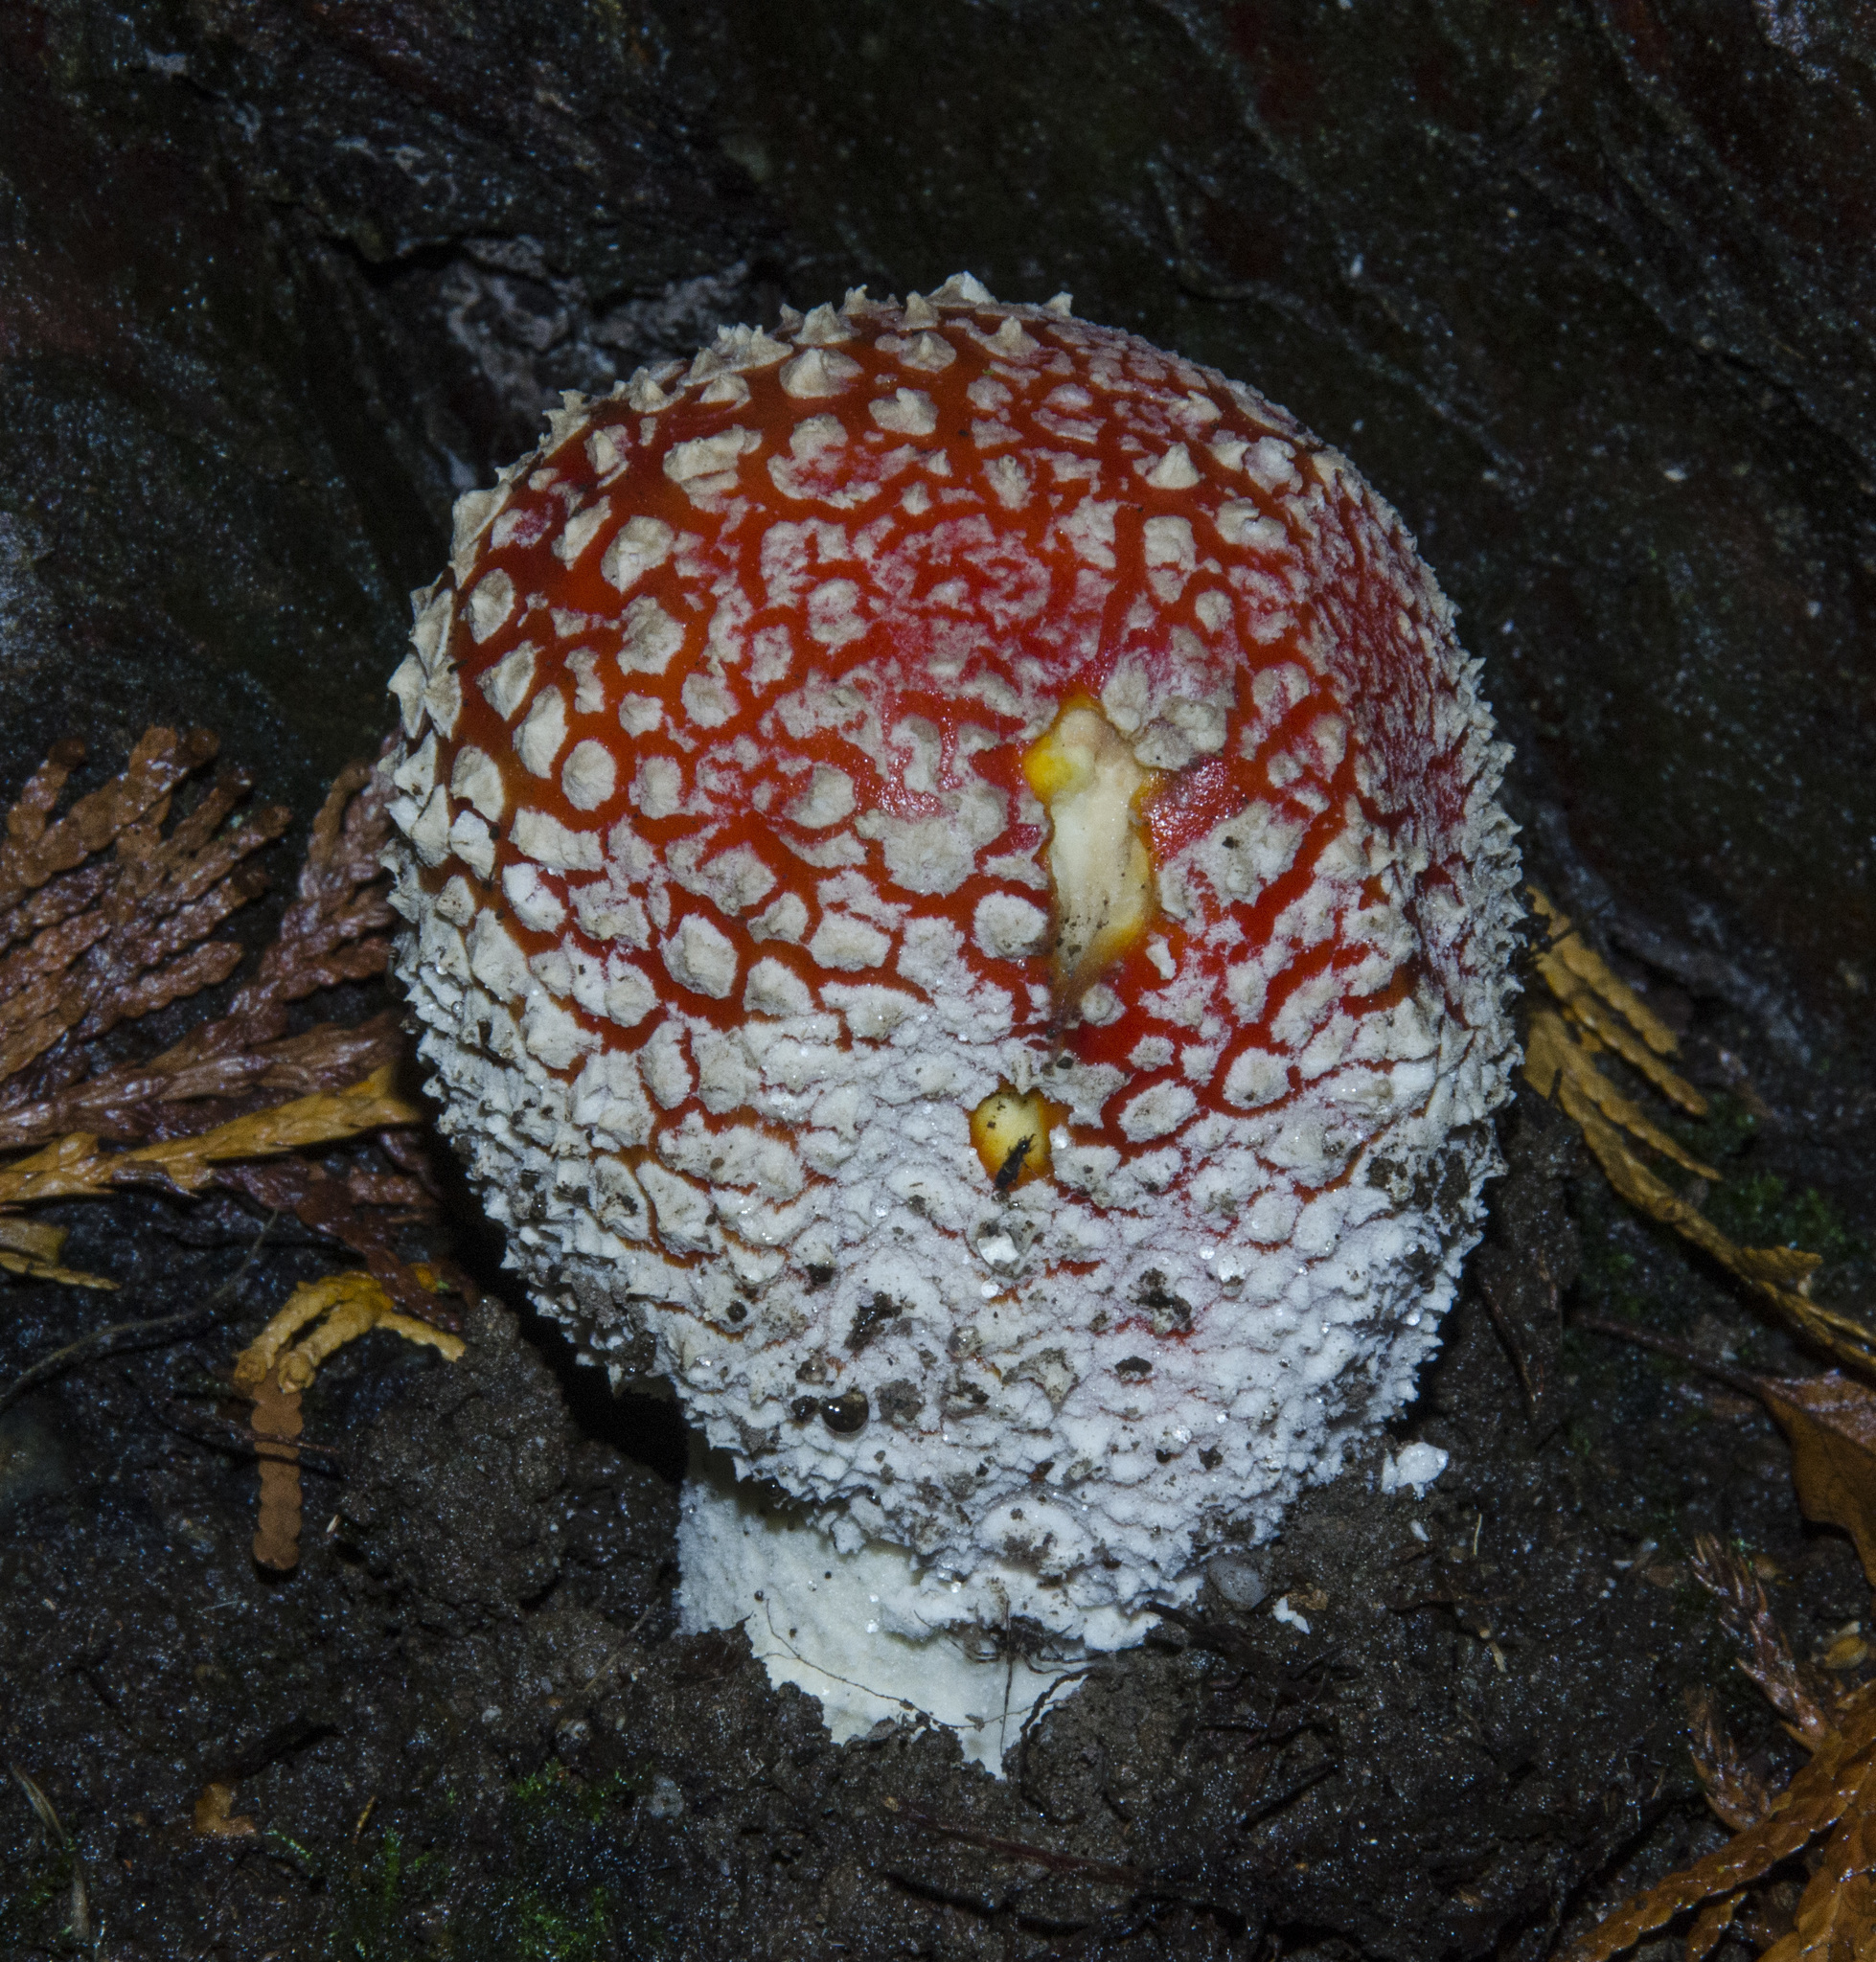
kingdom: Fungi
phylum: Basidiomycota
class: Agaricomycetes
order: Agaricales
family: Amanitaceae
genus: Amanita
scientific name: Amanita muscaria
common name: Fly agaric
